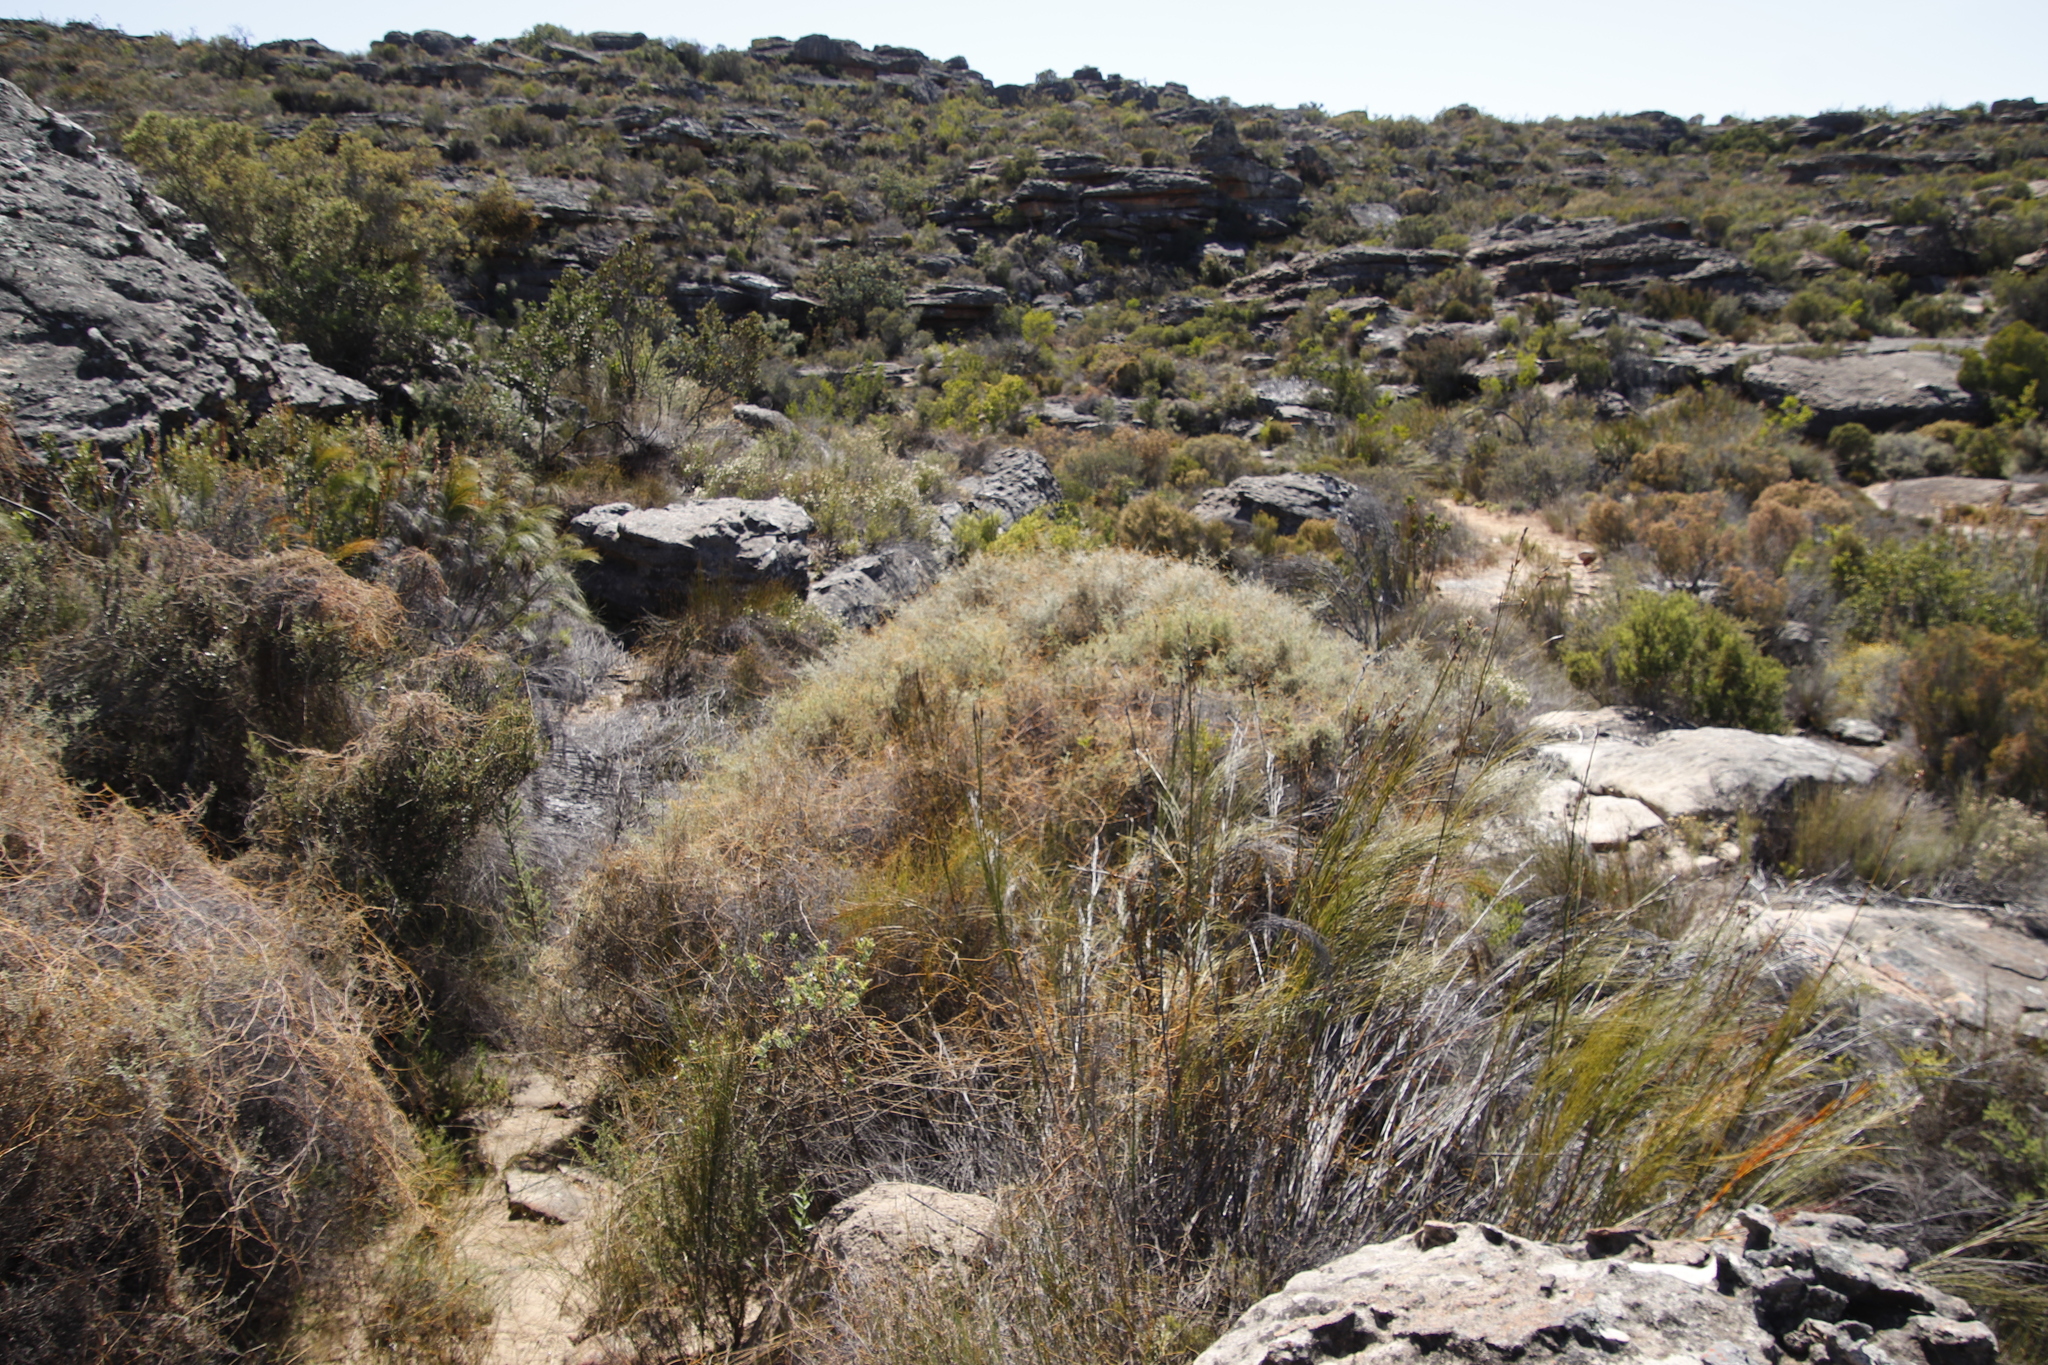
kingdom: Plantae
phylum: Tracheophyta
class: Magnoliopsida
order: Laurales
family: Lauraceae
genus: Cassytha
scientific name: Cassytha ciliolata
